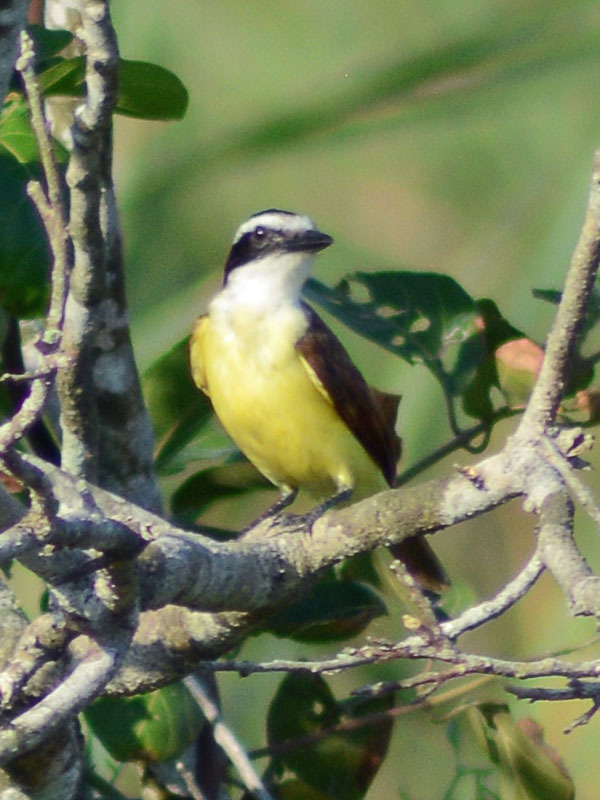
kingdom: Animalia
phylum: Chordata
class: Aves
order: Passeriformes
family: Tyrannidae
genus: Pitangus
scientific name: Pitangus sulphuratus
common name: Great kiskadee
